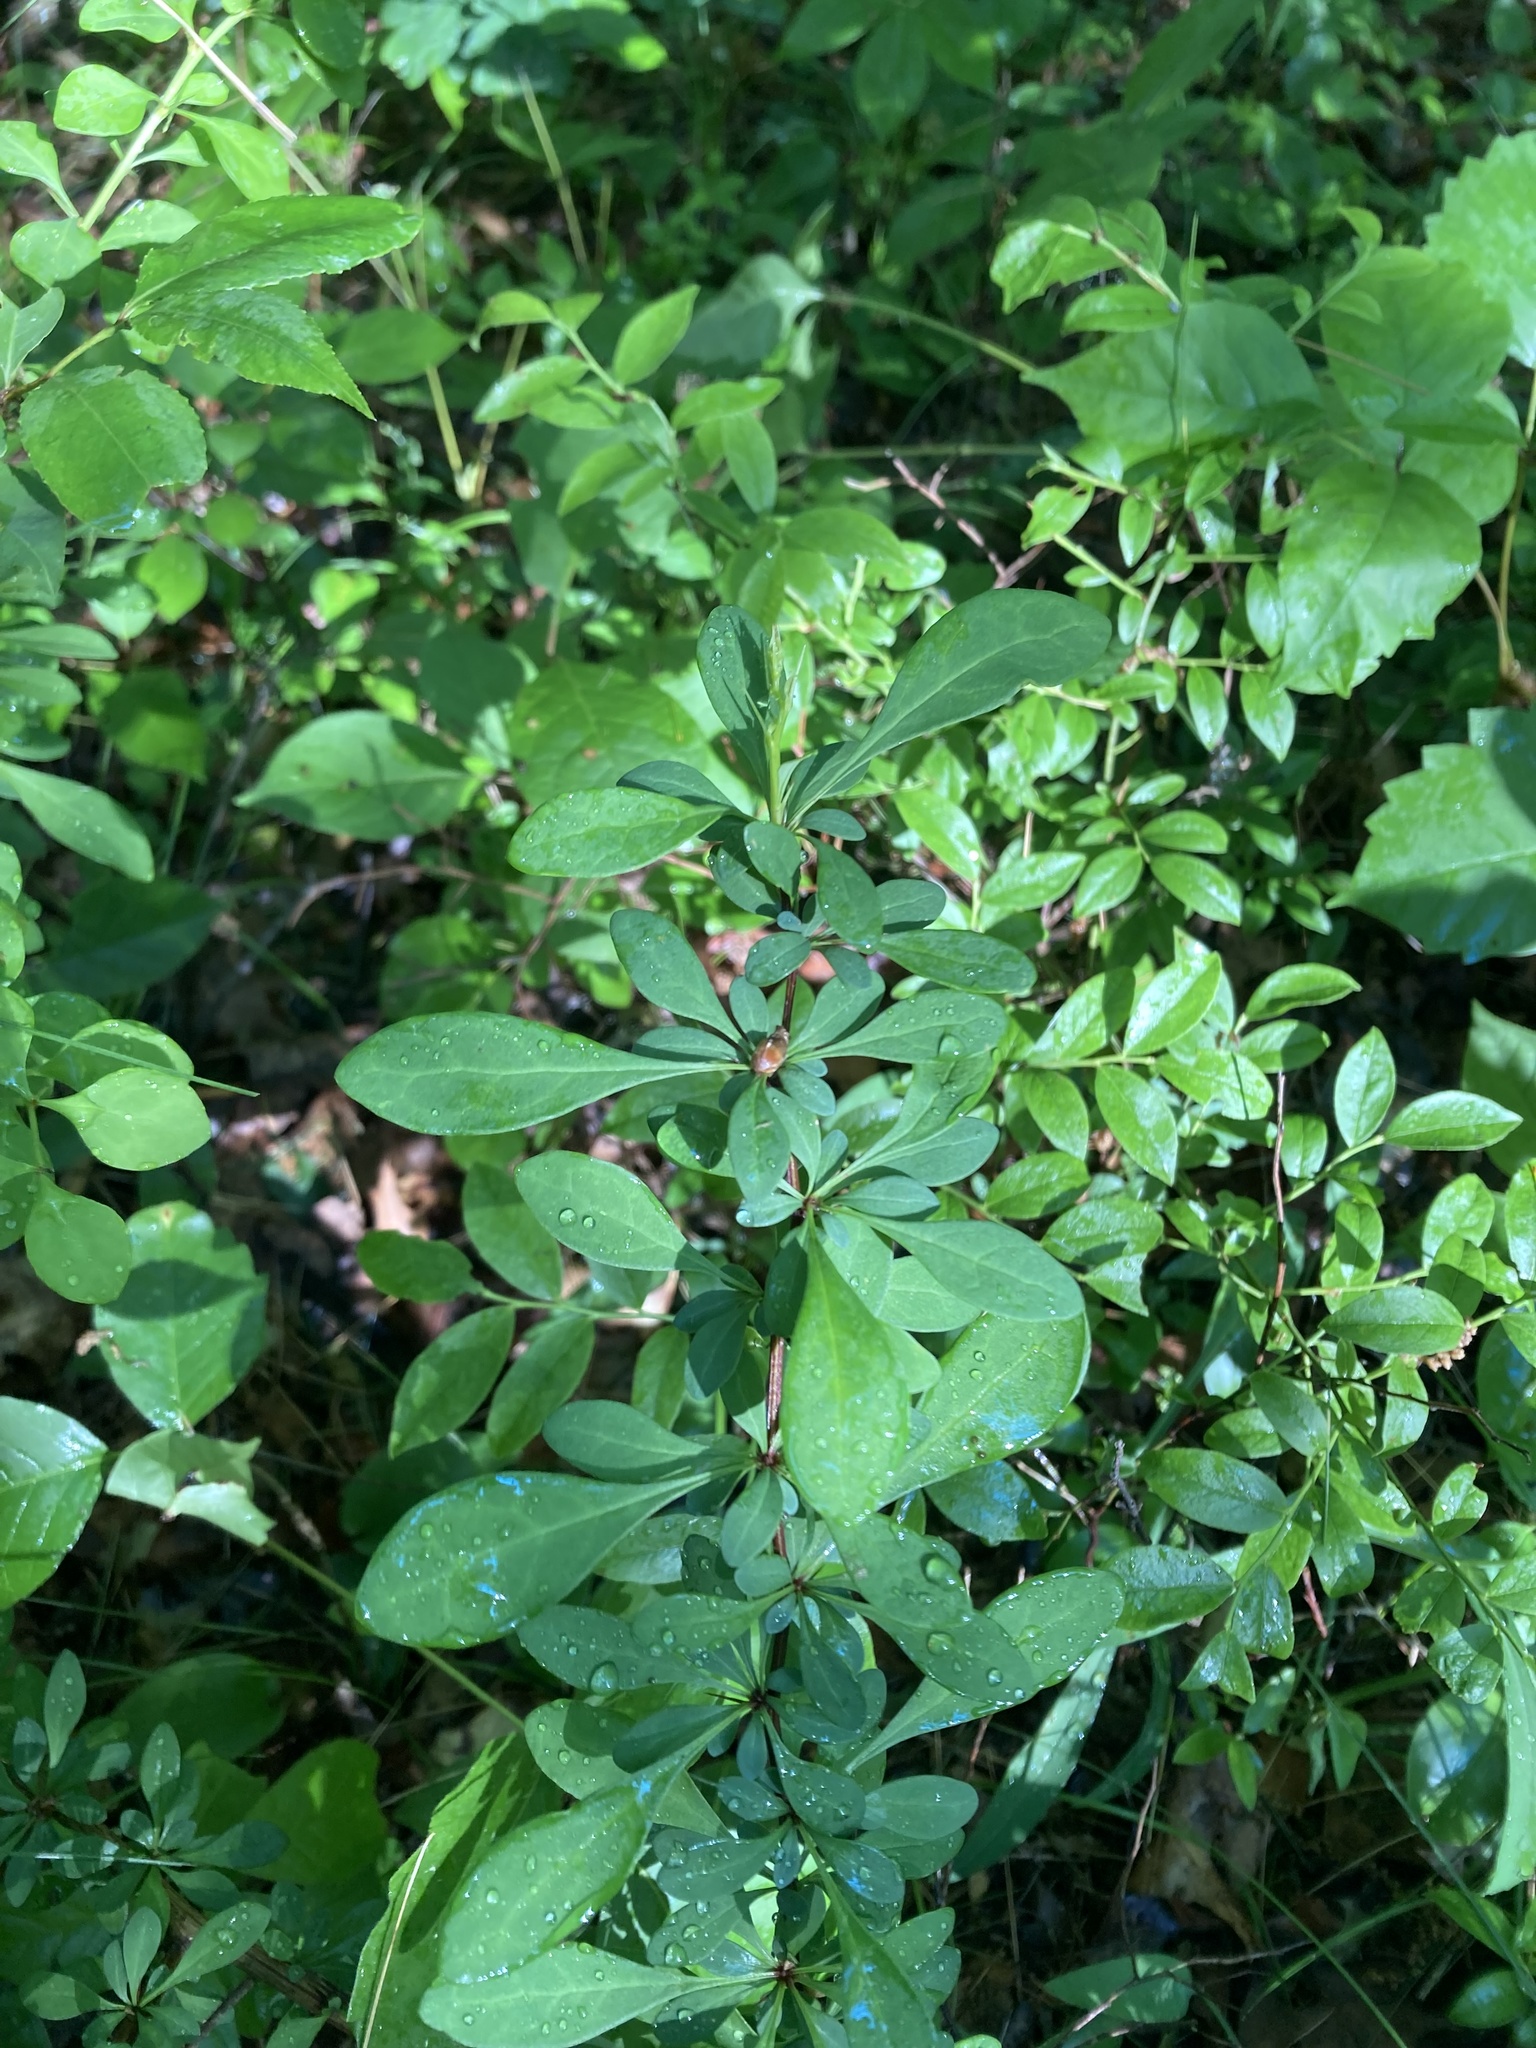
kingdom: Plantae
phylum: Tracheophyta
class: Magnoliopsida
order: Ranunculales
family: Berberidaceae
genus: Berberis
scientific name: Berberis thunbergii
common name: Japanese barberry
